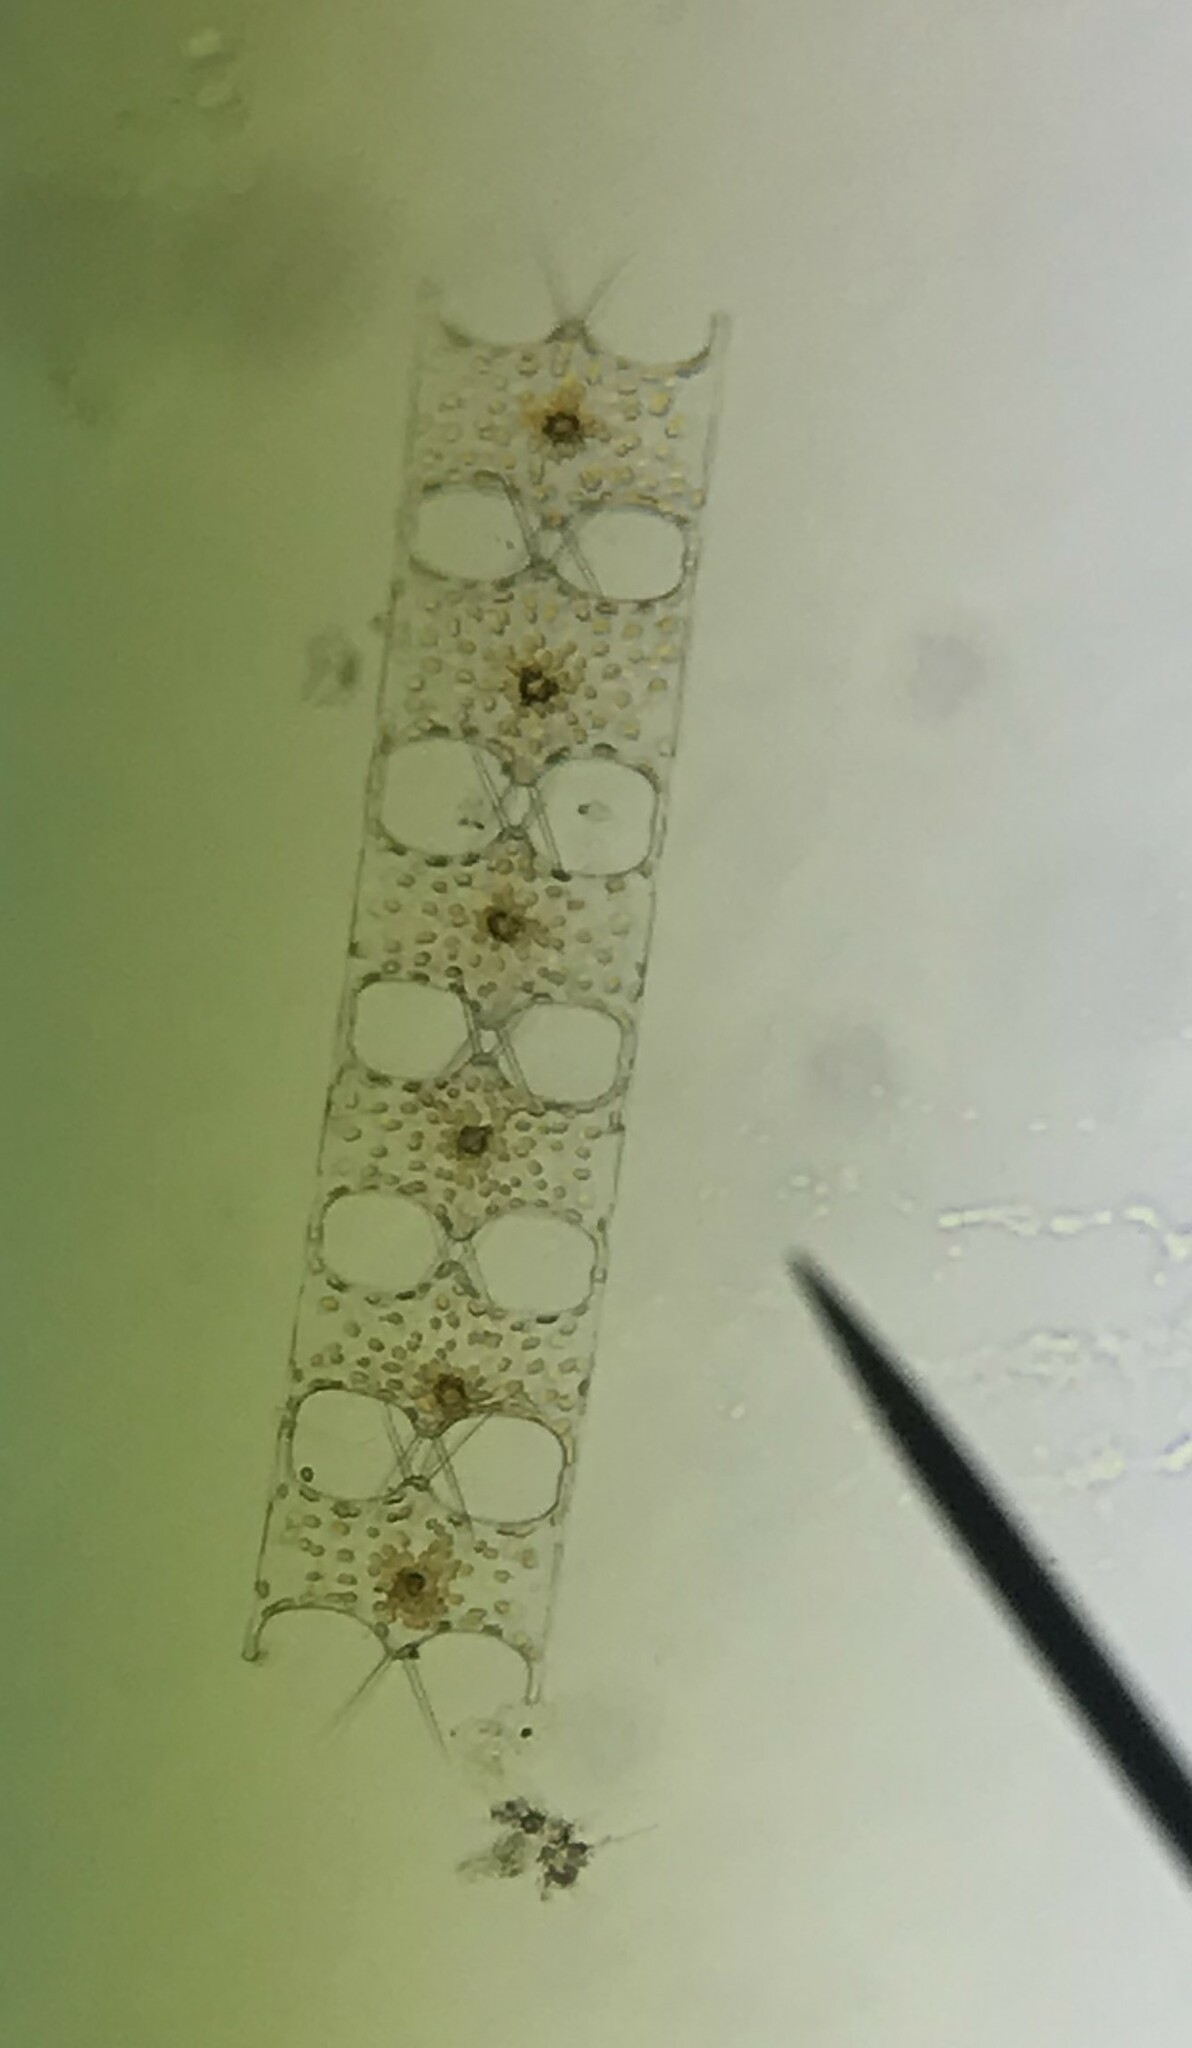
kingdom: Chromista
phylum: Ochrophyta
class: Bacillariophyceae
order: Triceratiales
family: Triceratiaceae
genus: Hobaniella
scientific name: Hobaniella longicruris
